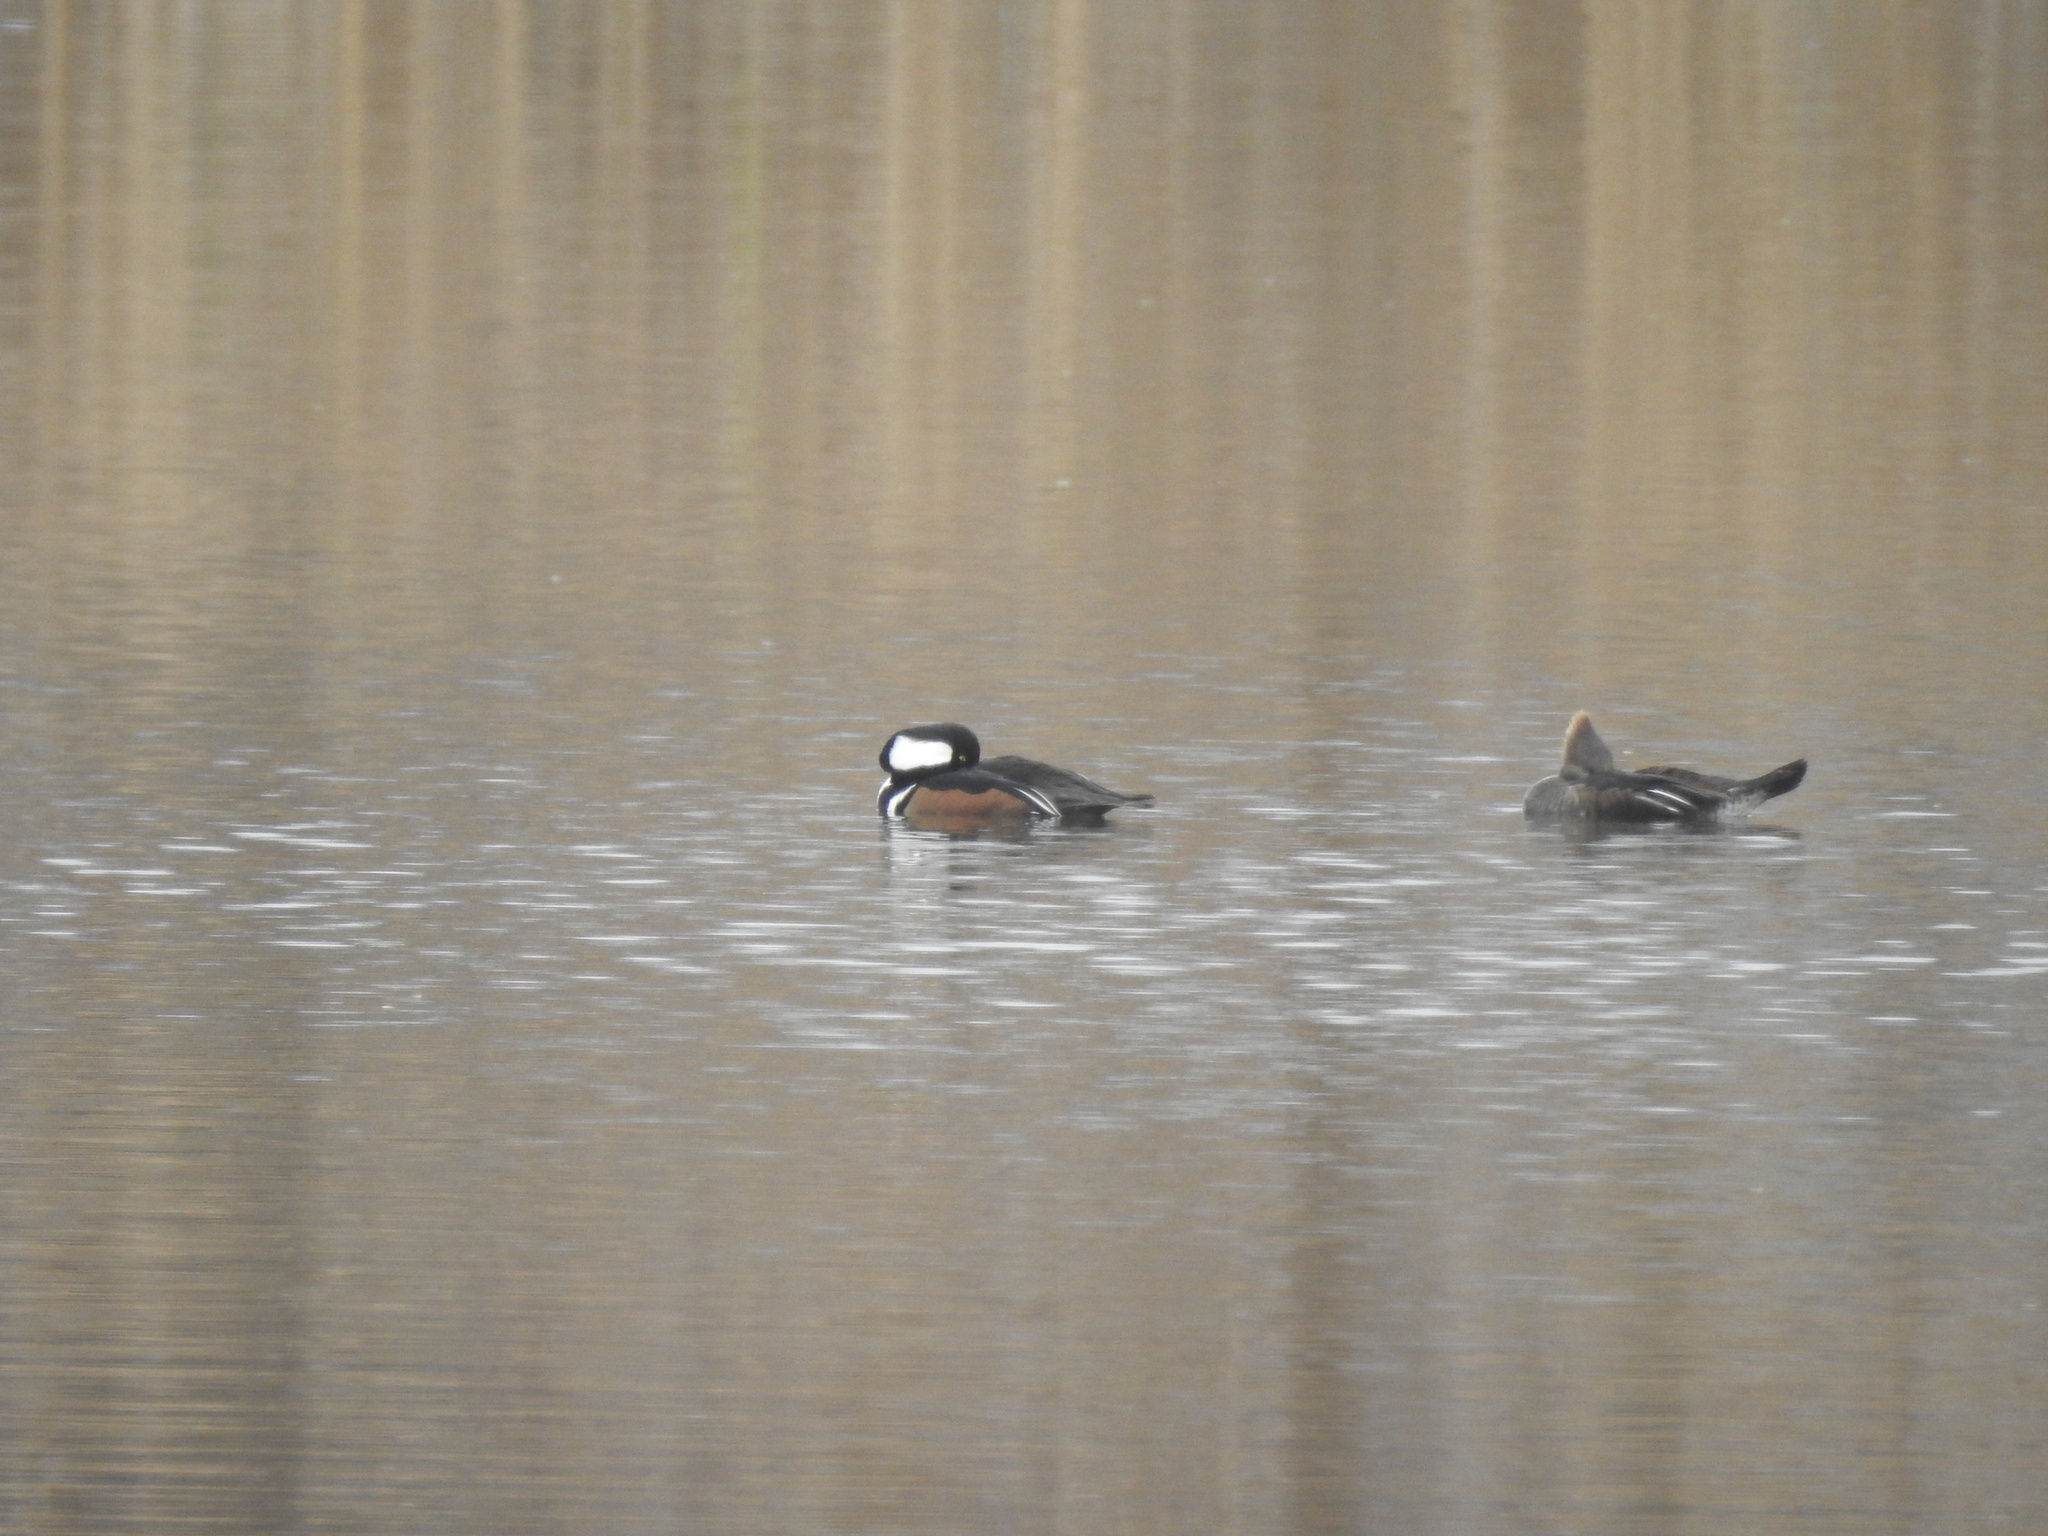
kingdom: Animalia
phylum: Chordata
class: Aves
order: Anseriformes
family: Anatidae
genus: Lophodytes
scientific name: Lophodytes cucullatus
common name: Hooded merganser
